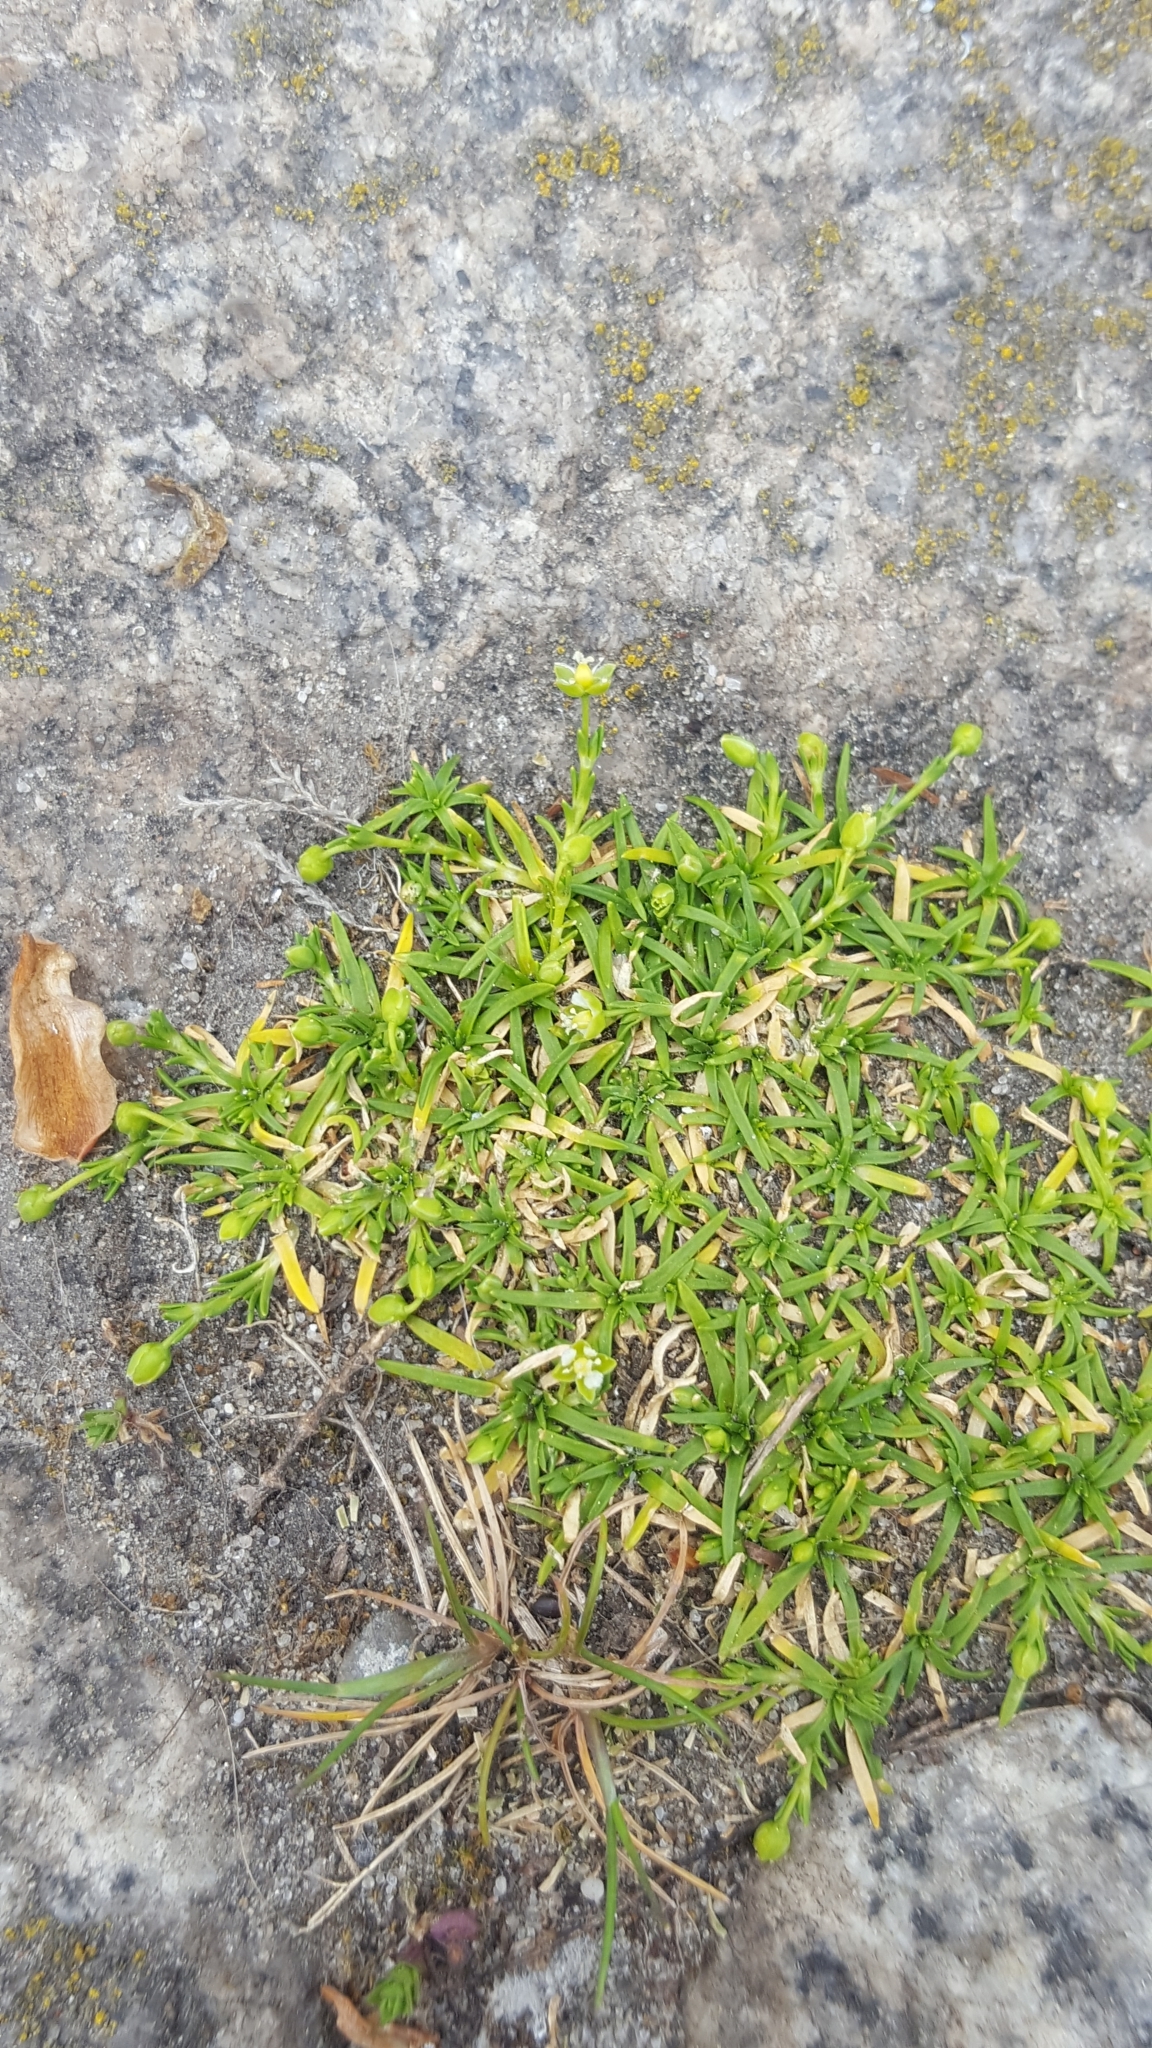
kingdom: Plantae
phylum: Tracheophyta
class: Magnoliopsida
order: Caryophyllales
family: Caryophyllaceae
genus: Sagina
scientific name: Sagina procumbens
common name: Procumbent pearlwort
